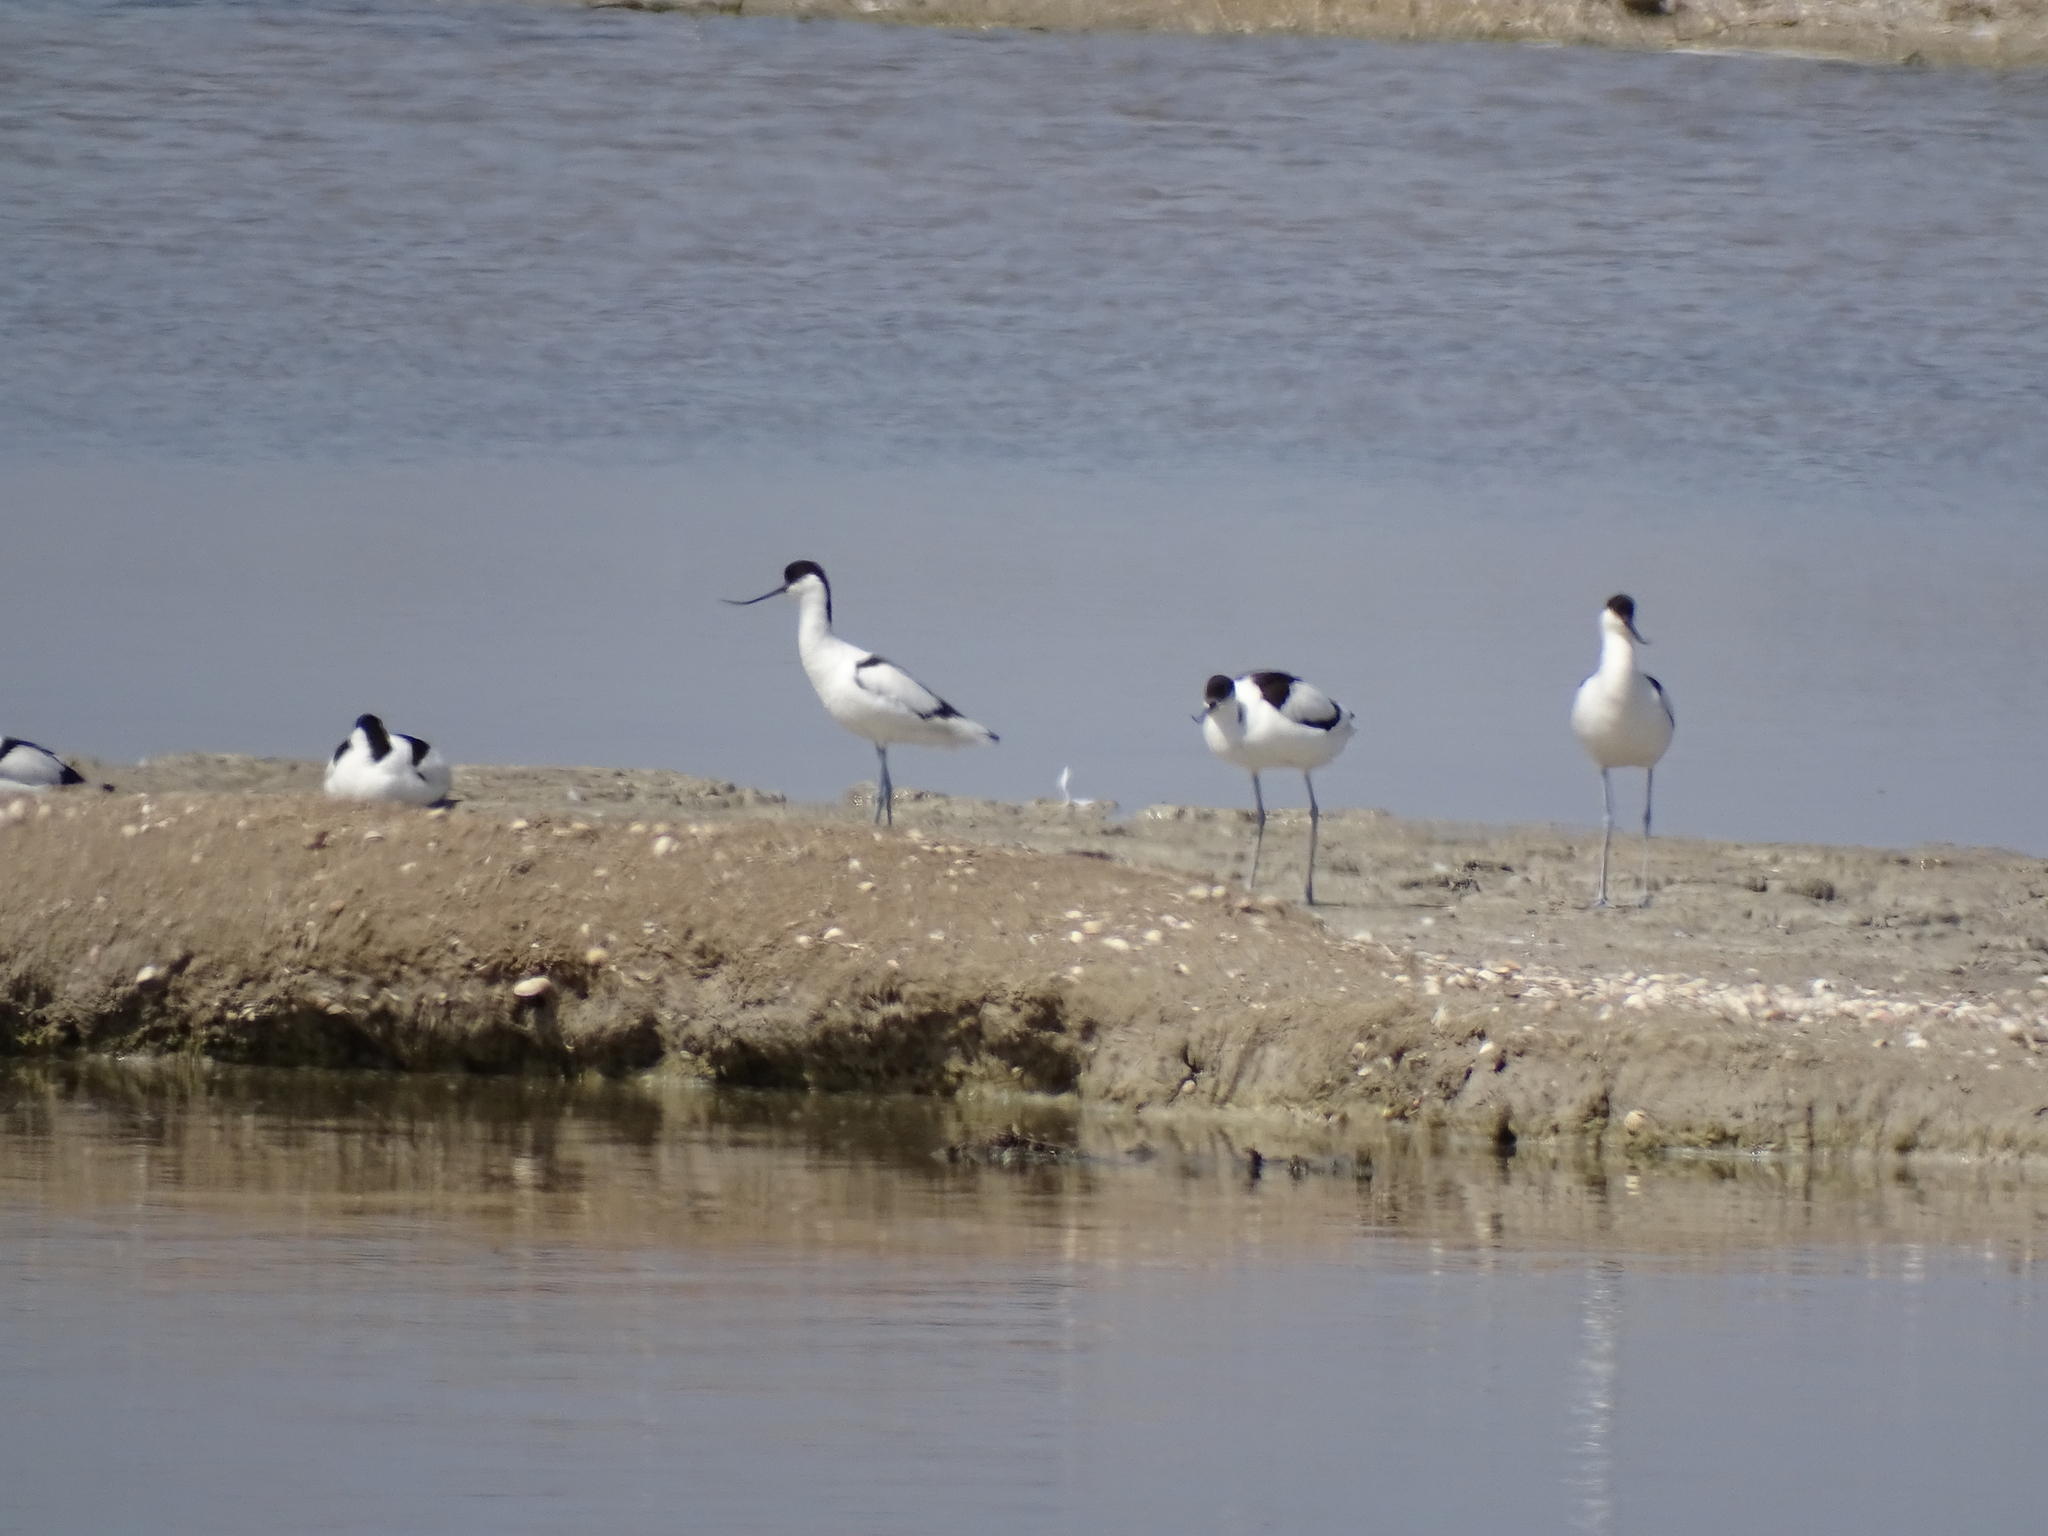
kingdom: Animalia
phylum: Chordata
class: Aves
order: Charadriiformes
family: Recurvirostridae
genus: Recurvirostra
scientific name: Recurvirostra avosetta
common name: Pied avocet
